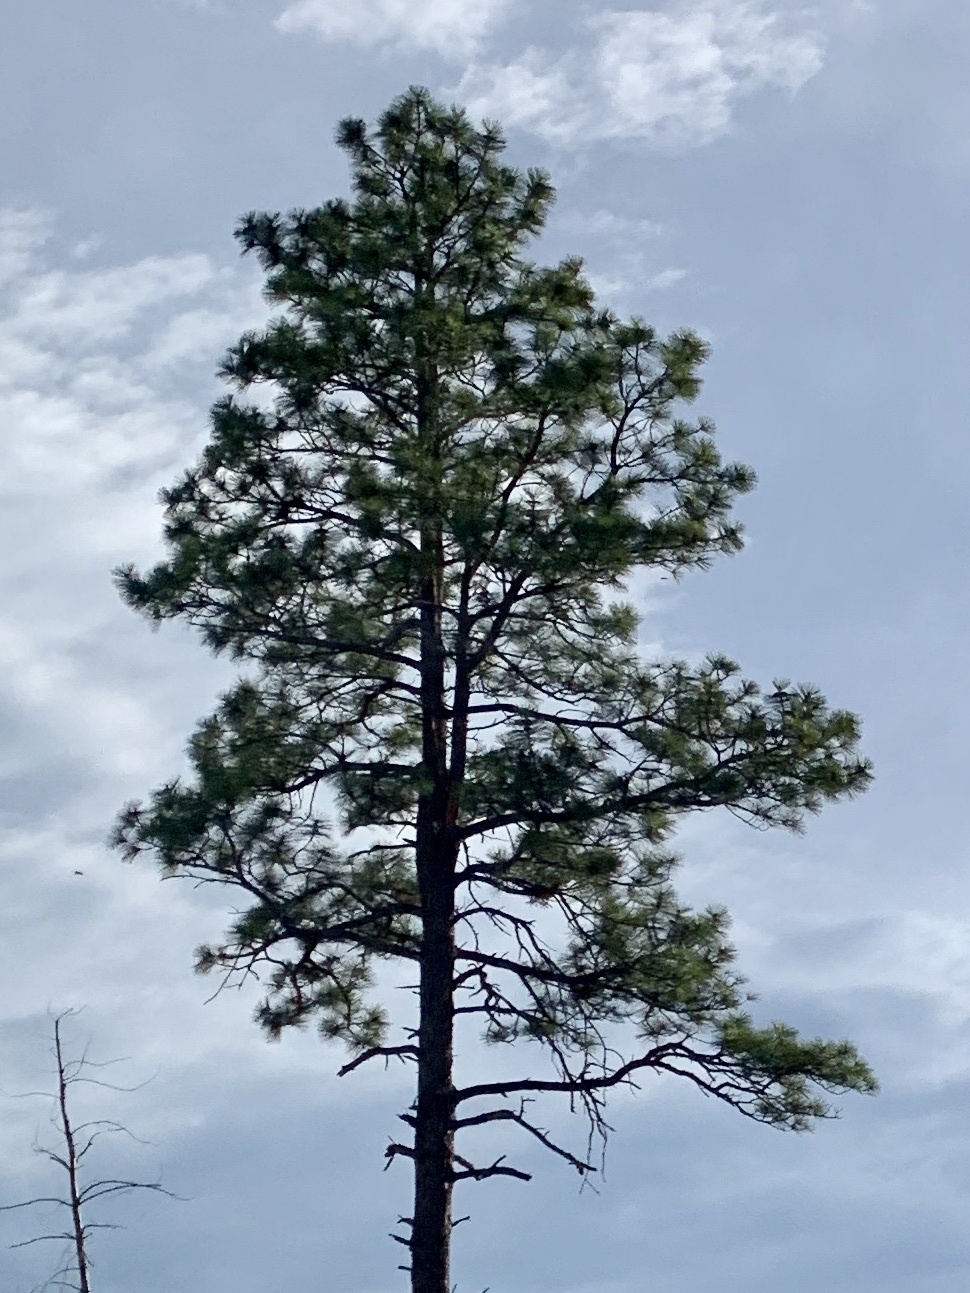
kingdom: Plantae
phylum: Tracheophyta
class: Pinopsida
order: Pinales
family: Pinaceae
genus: Pinus
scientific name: Pinus ponderosa
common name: Western yellow-pine
